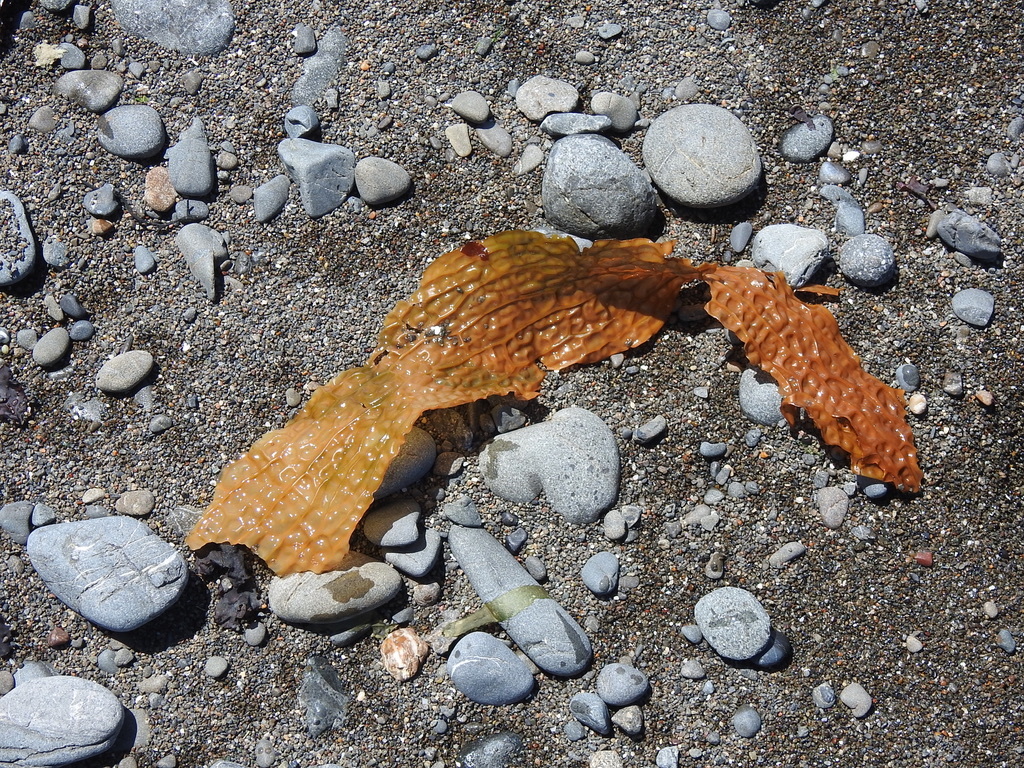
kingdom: Chromista
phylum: Ochrophyta
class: Phaeophyceae
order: Laminariales
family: Costariaceae
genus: Dictyoneurum
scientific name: Dictyoneurum californicum
